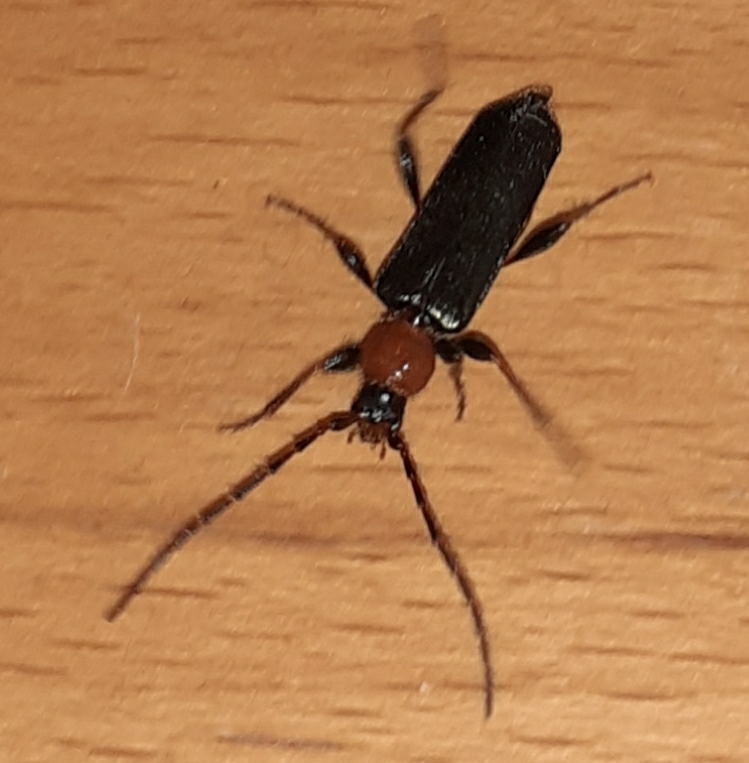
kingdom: Animalia
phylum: Arthropoda
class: Insecta
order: Coleoptera
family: Cerambycidae
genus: Phymatodes
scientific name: Phymatodes testaceus
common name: Long-horned beetle
